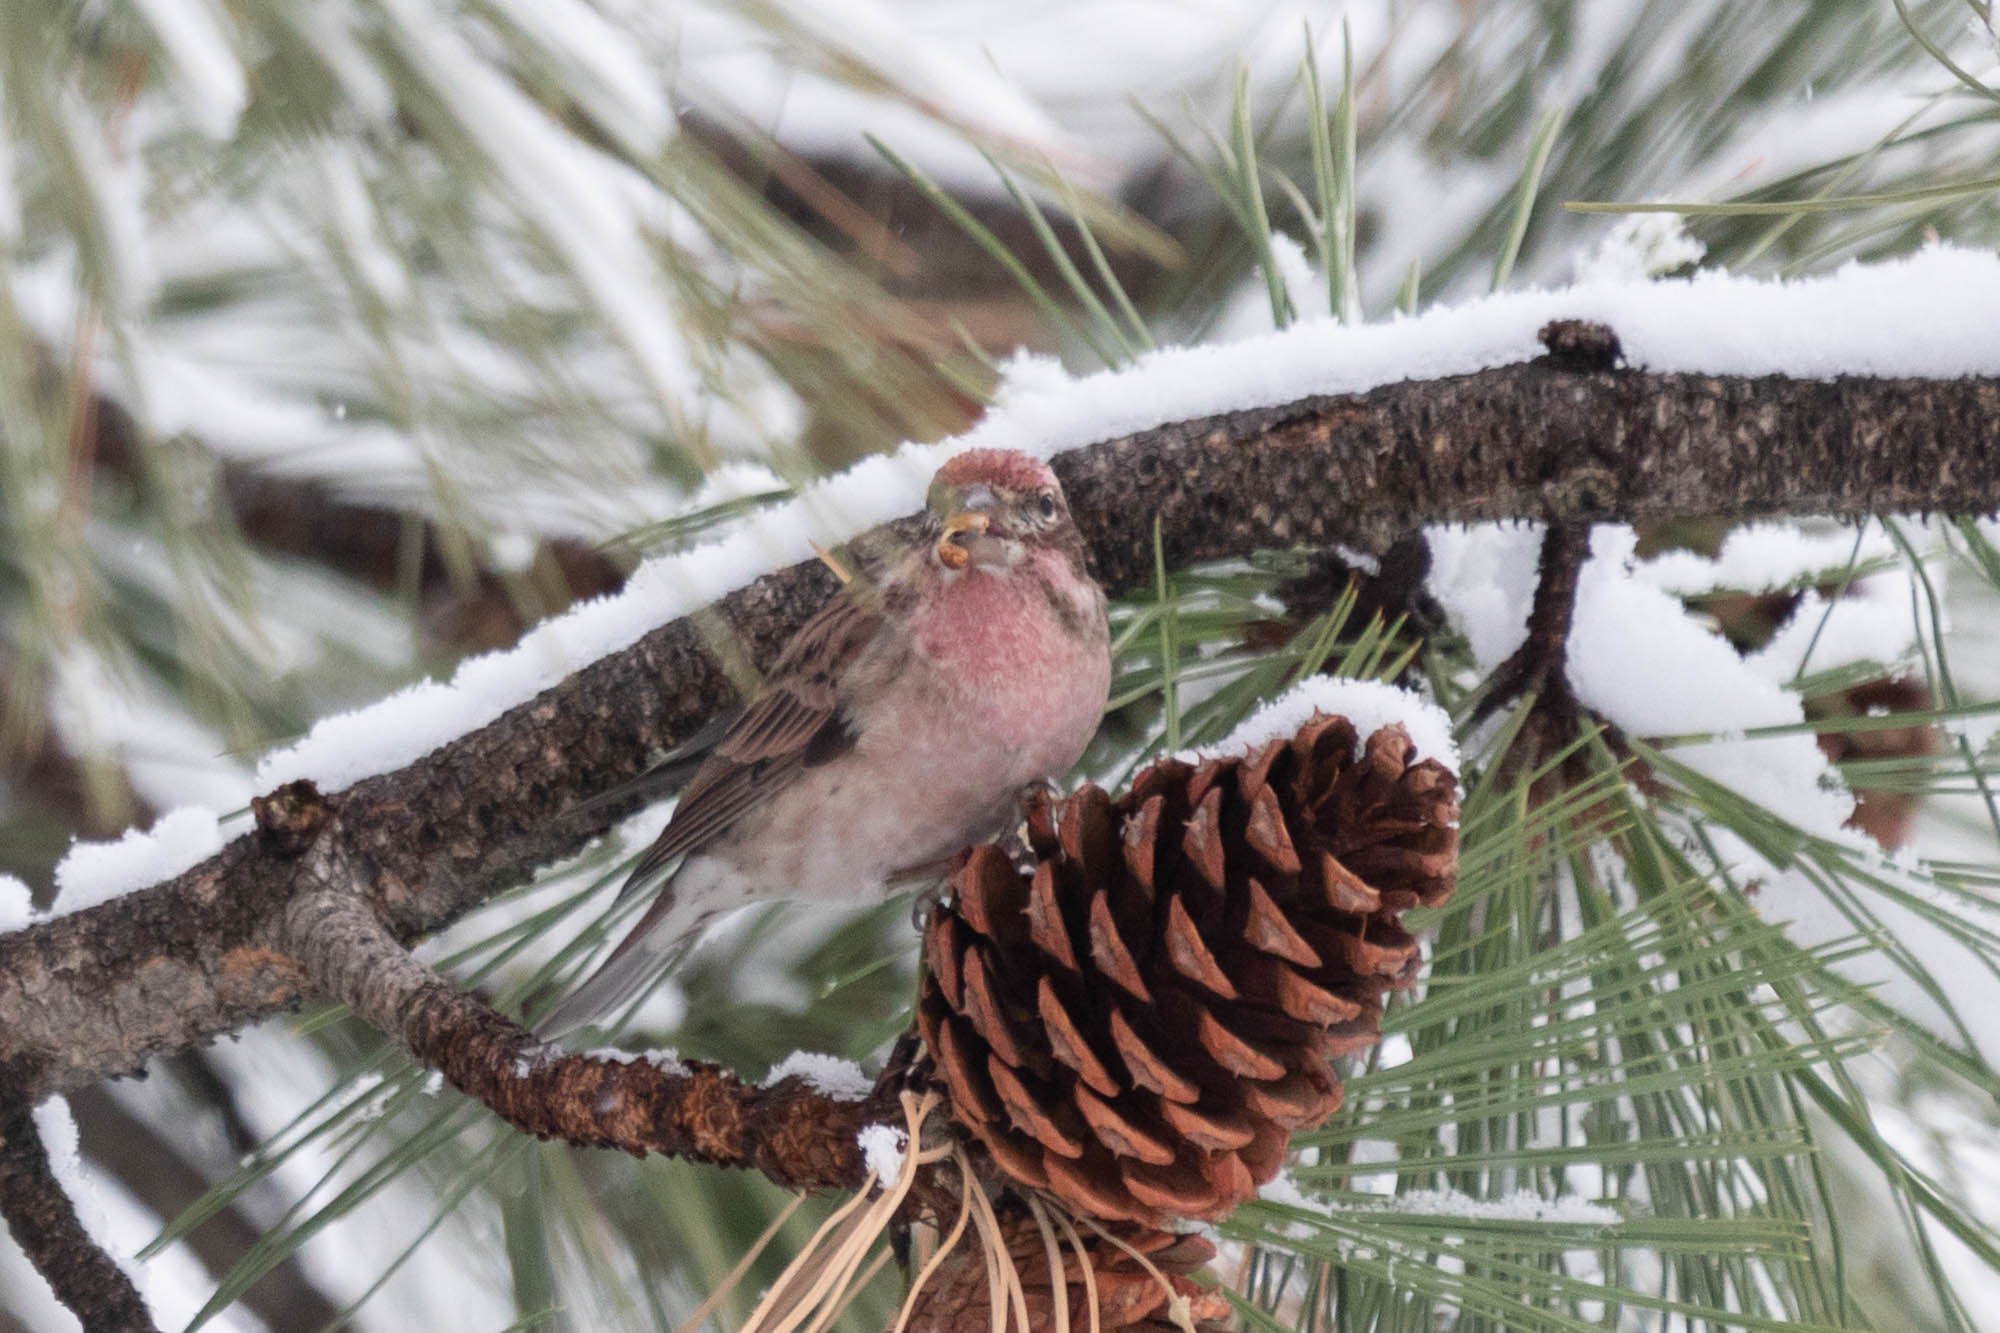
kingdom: Animalia
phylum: Chordata
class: Aves
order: Passeriformes
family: Fringillidae
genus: Haemorhous
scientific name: Haemorhous cassinii
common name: Cassin's finch
